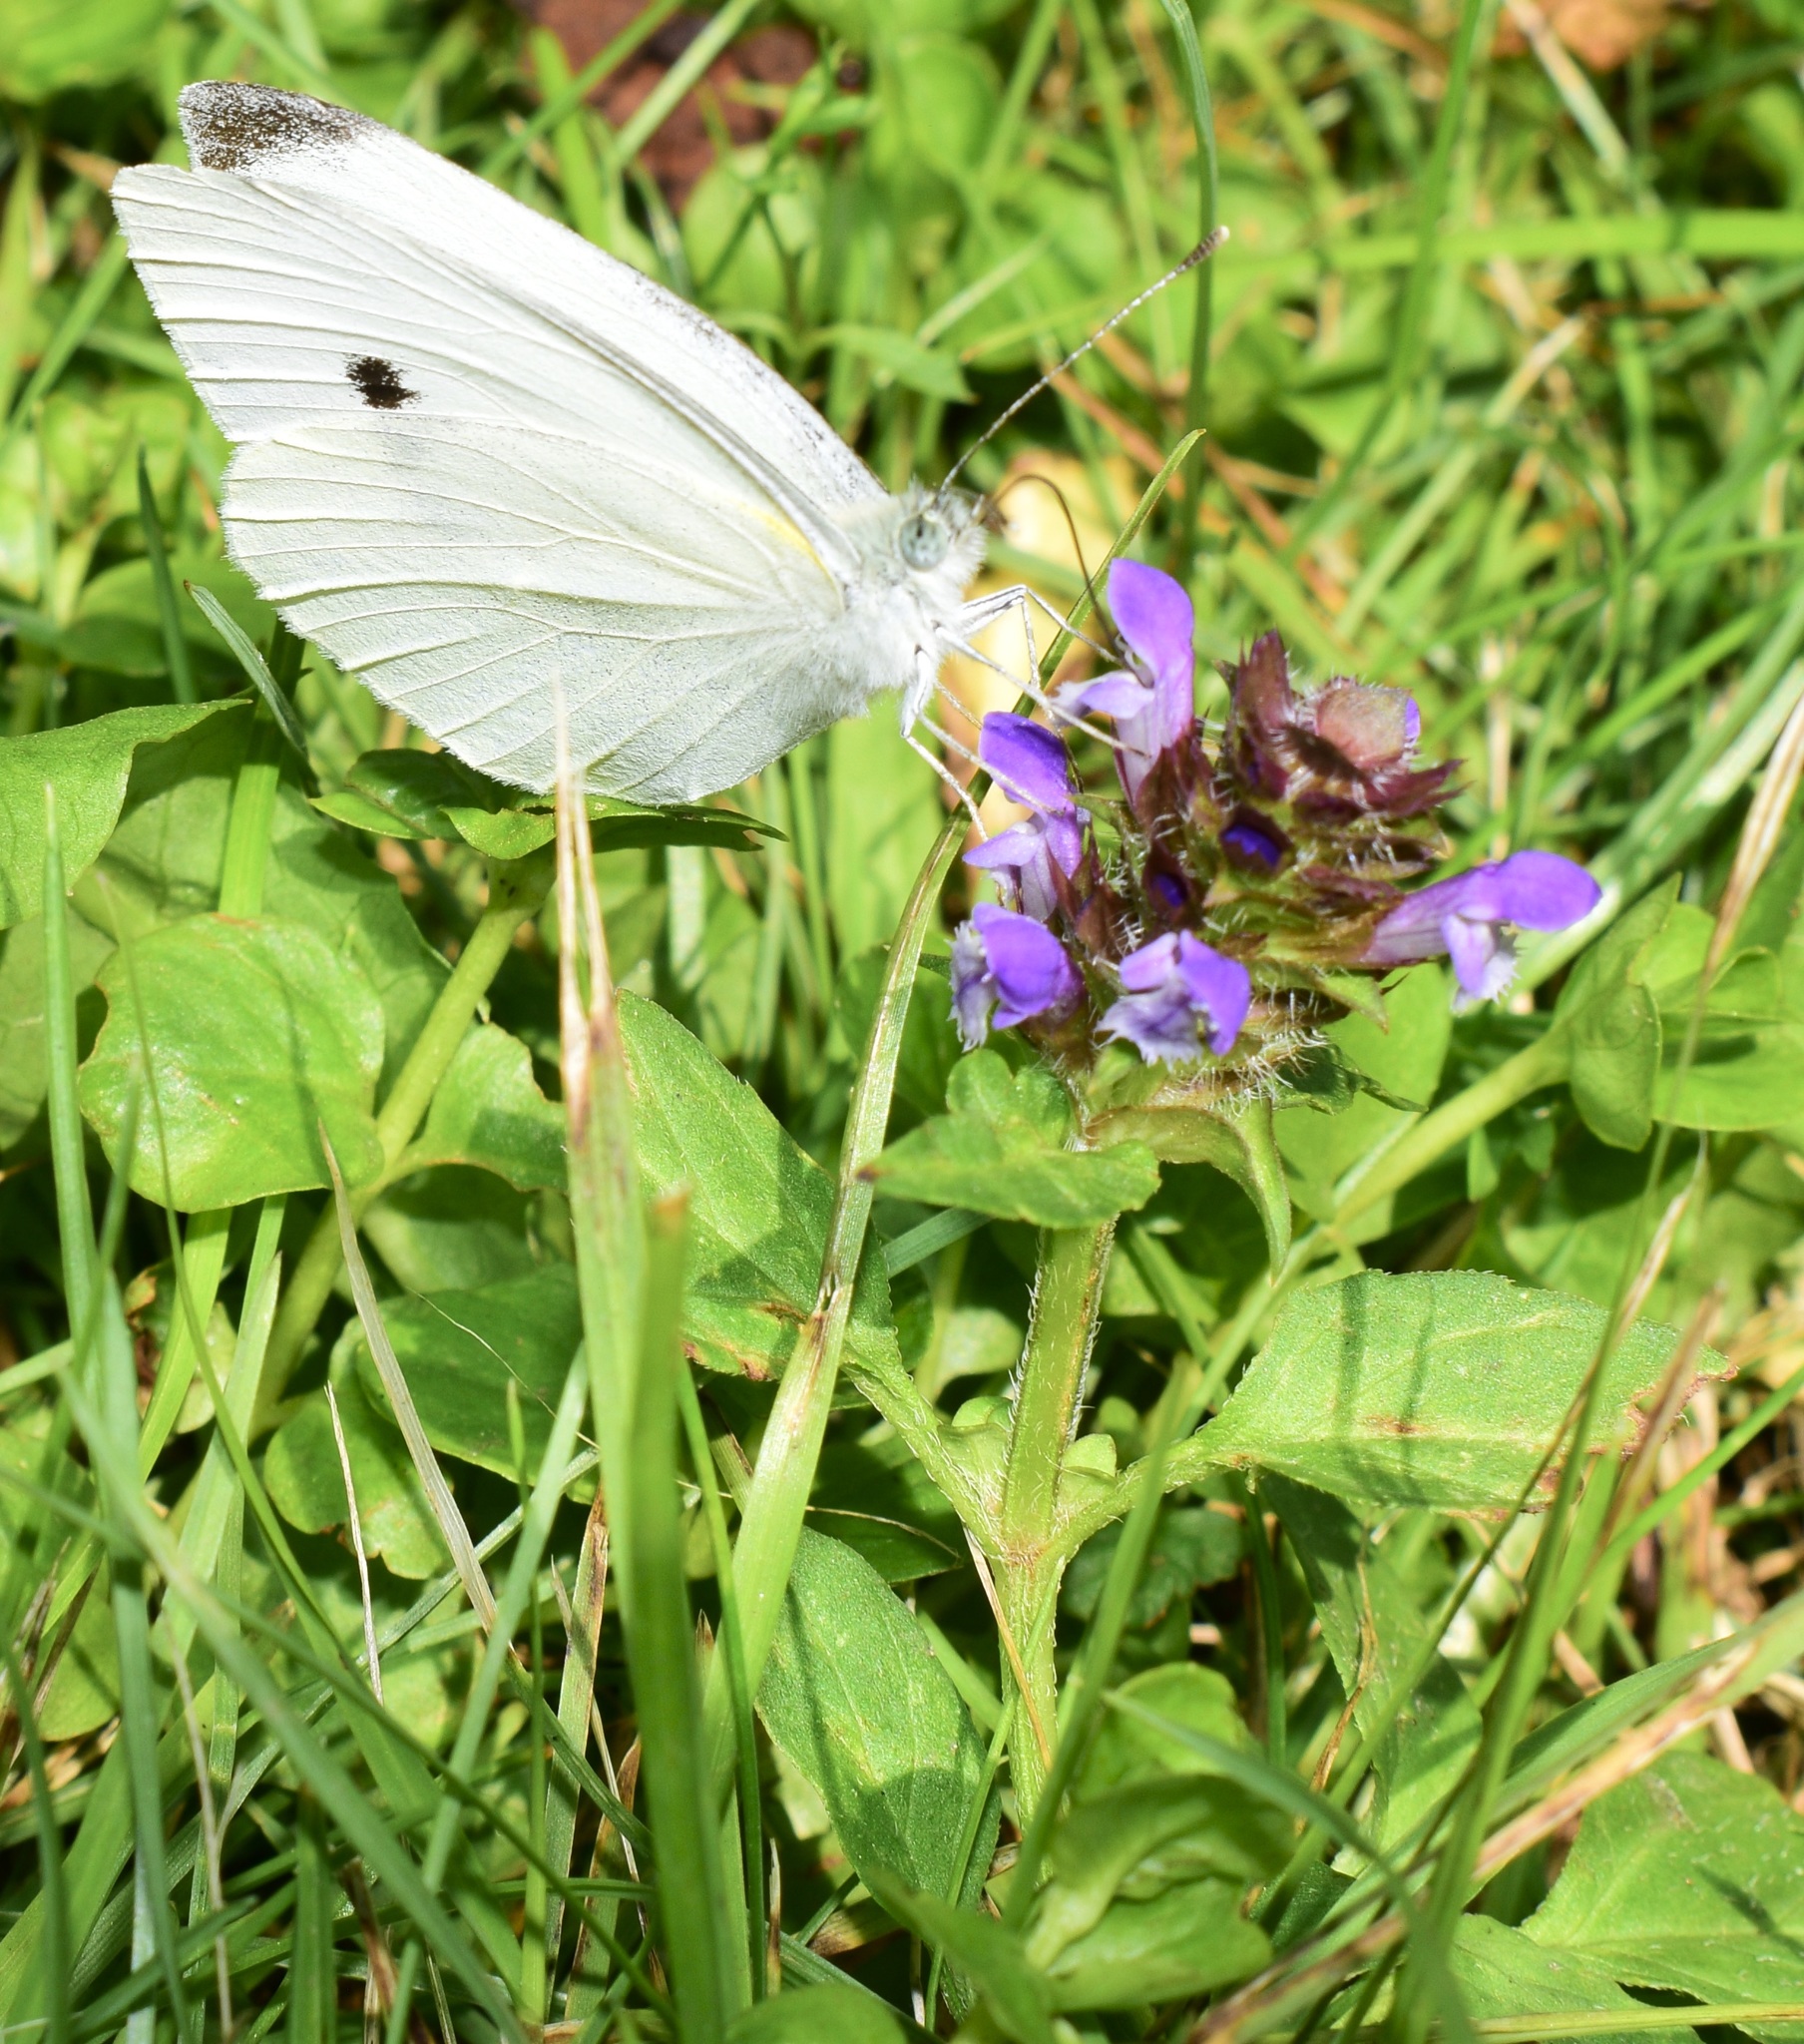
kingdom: Animalia
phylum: Arthropoda
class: Insecta
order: Lepidoptera
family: Pieridae
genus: Pieris
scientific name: Pieris rapae
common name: Small white
